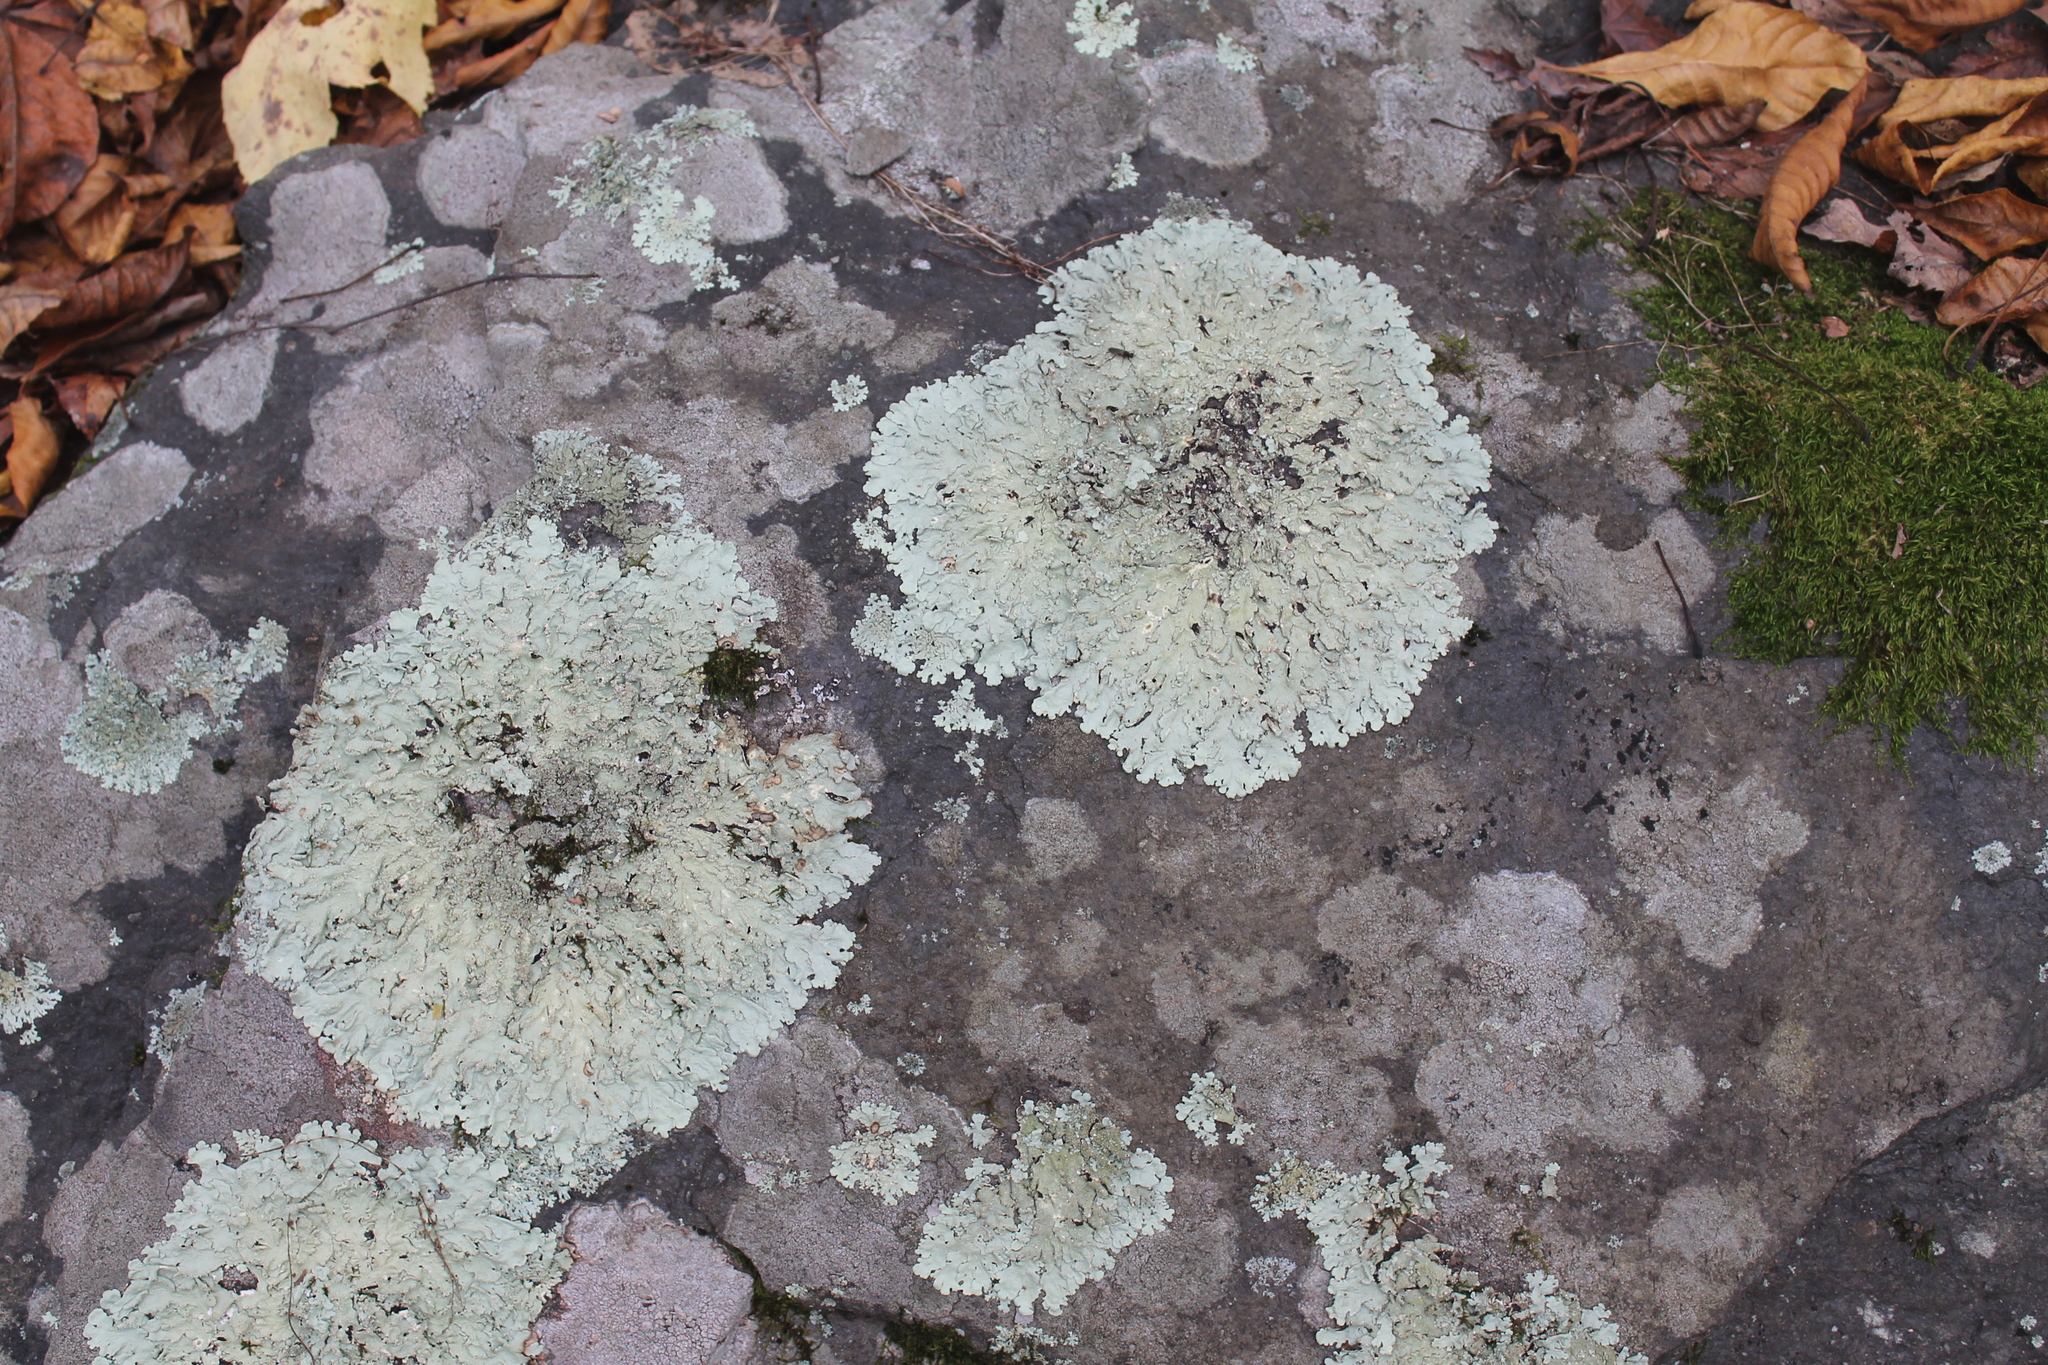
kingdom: Fungi
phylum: Ascomycota
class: Lecanoromycetes
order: Lecanorales
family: Parmeliaceae
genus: Flavoparmelia
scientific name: Flavoparmelia baltimorensis
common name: Rock greenshield
